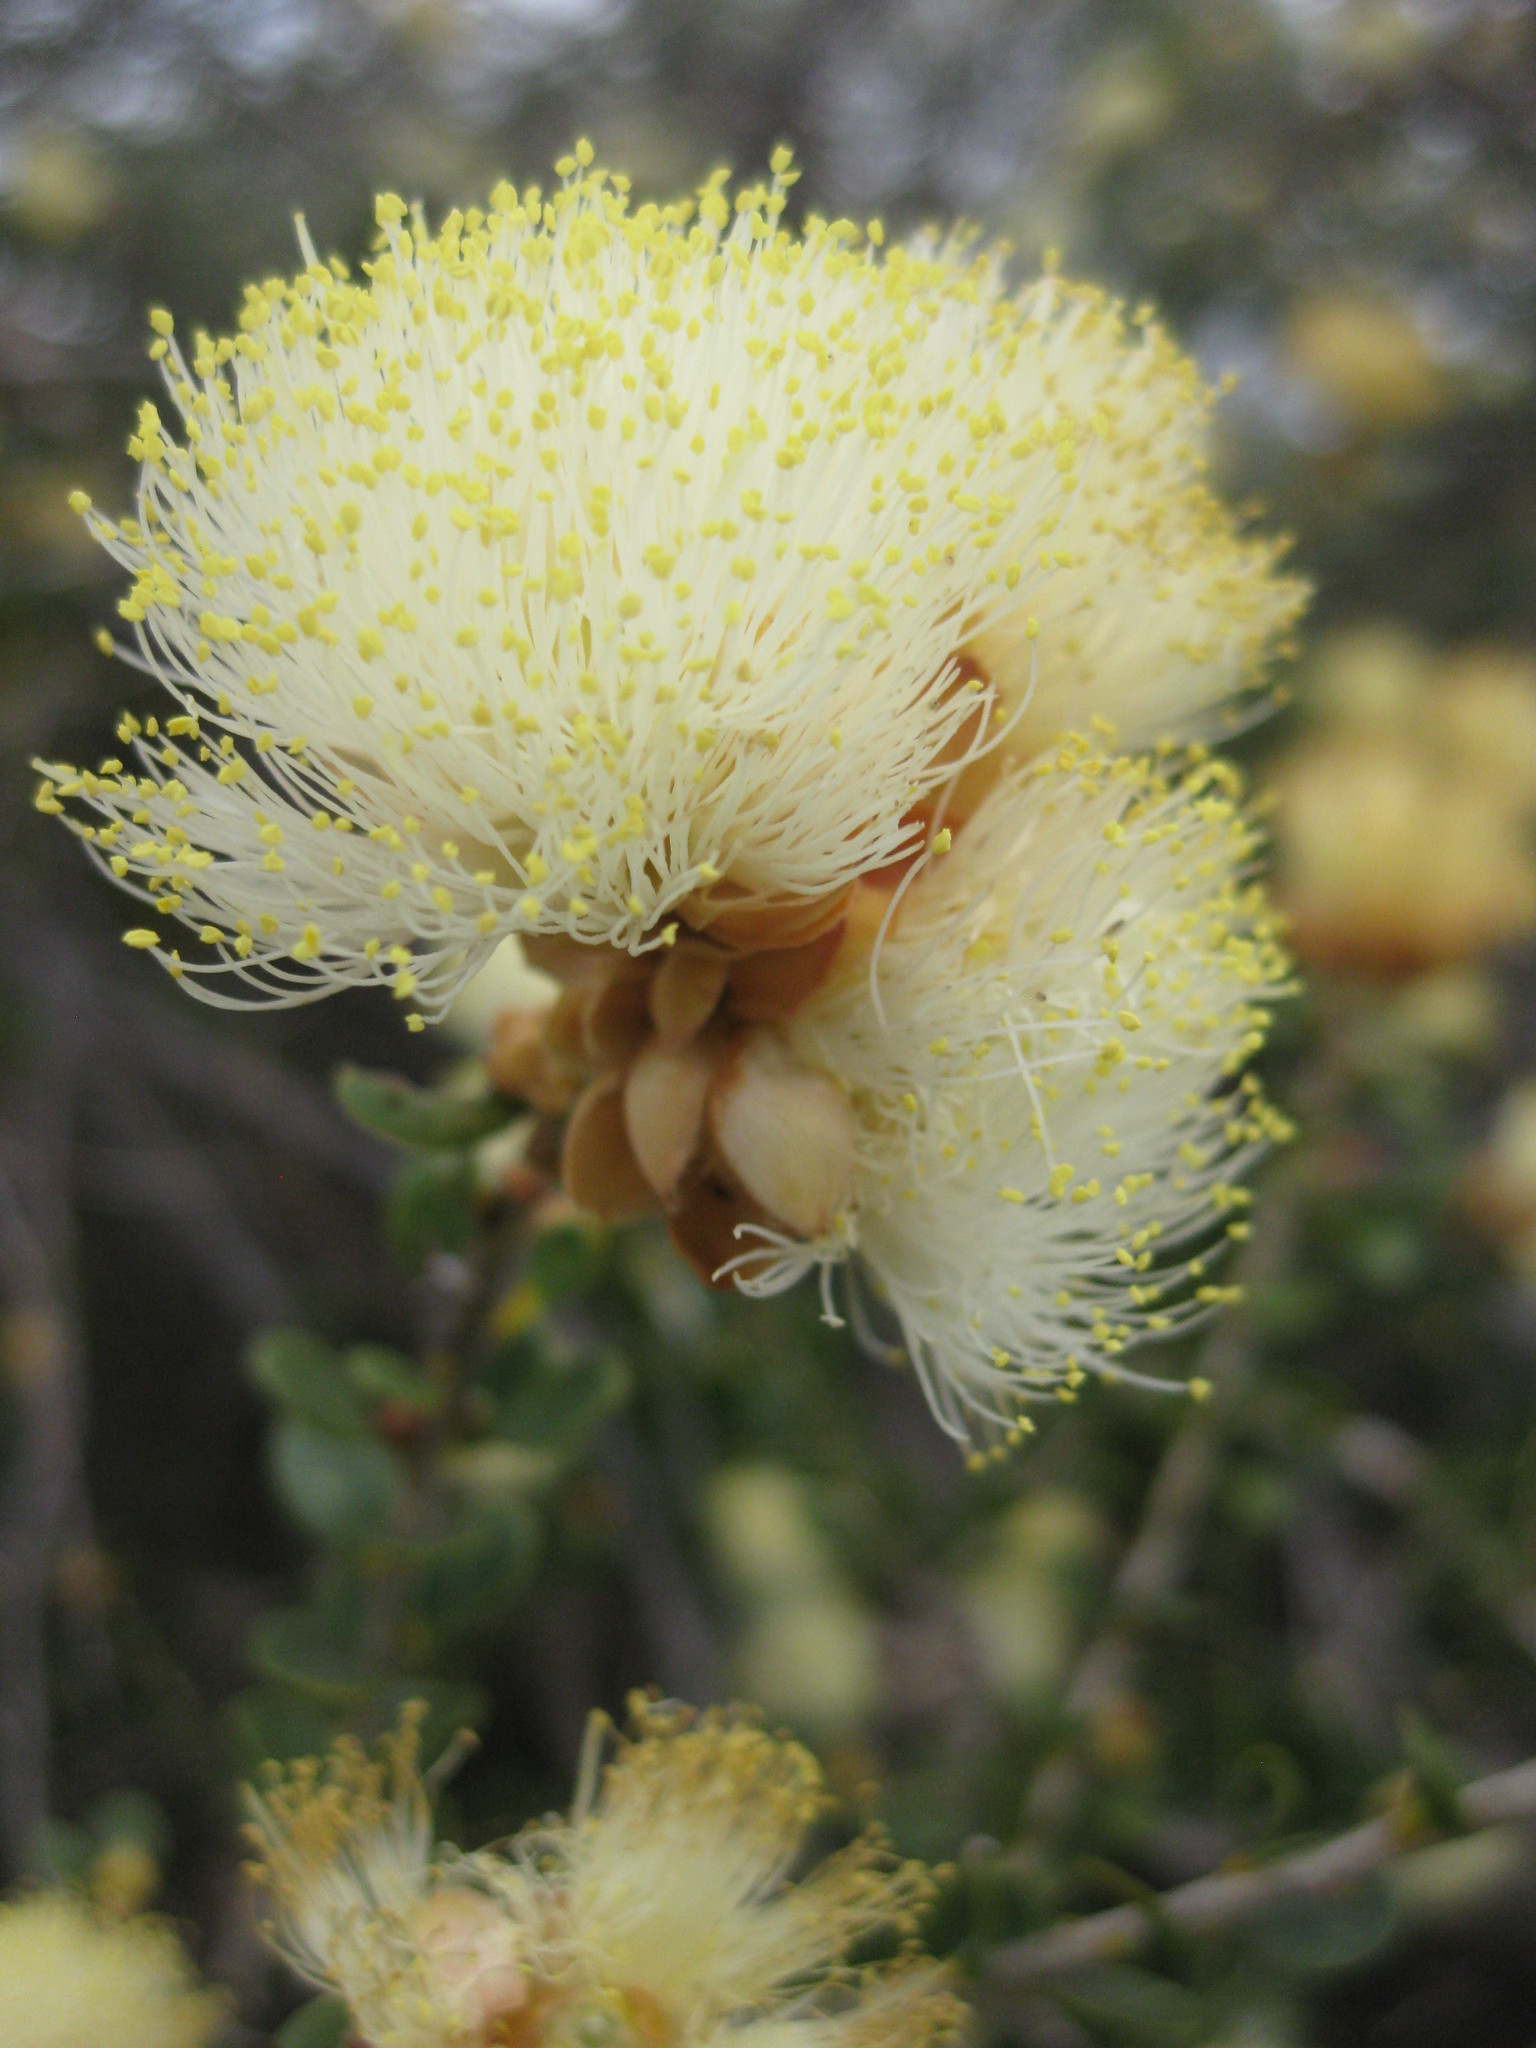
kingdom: Plantae
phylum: Tracheophyta
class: Magnoliopsida
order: Myrtales
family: Myrtaceae
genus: Melaleuca
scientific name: Melaleuca megacephala
